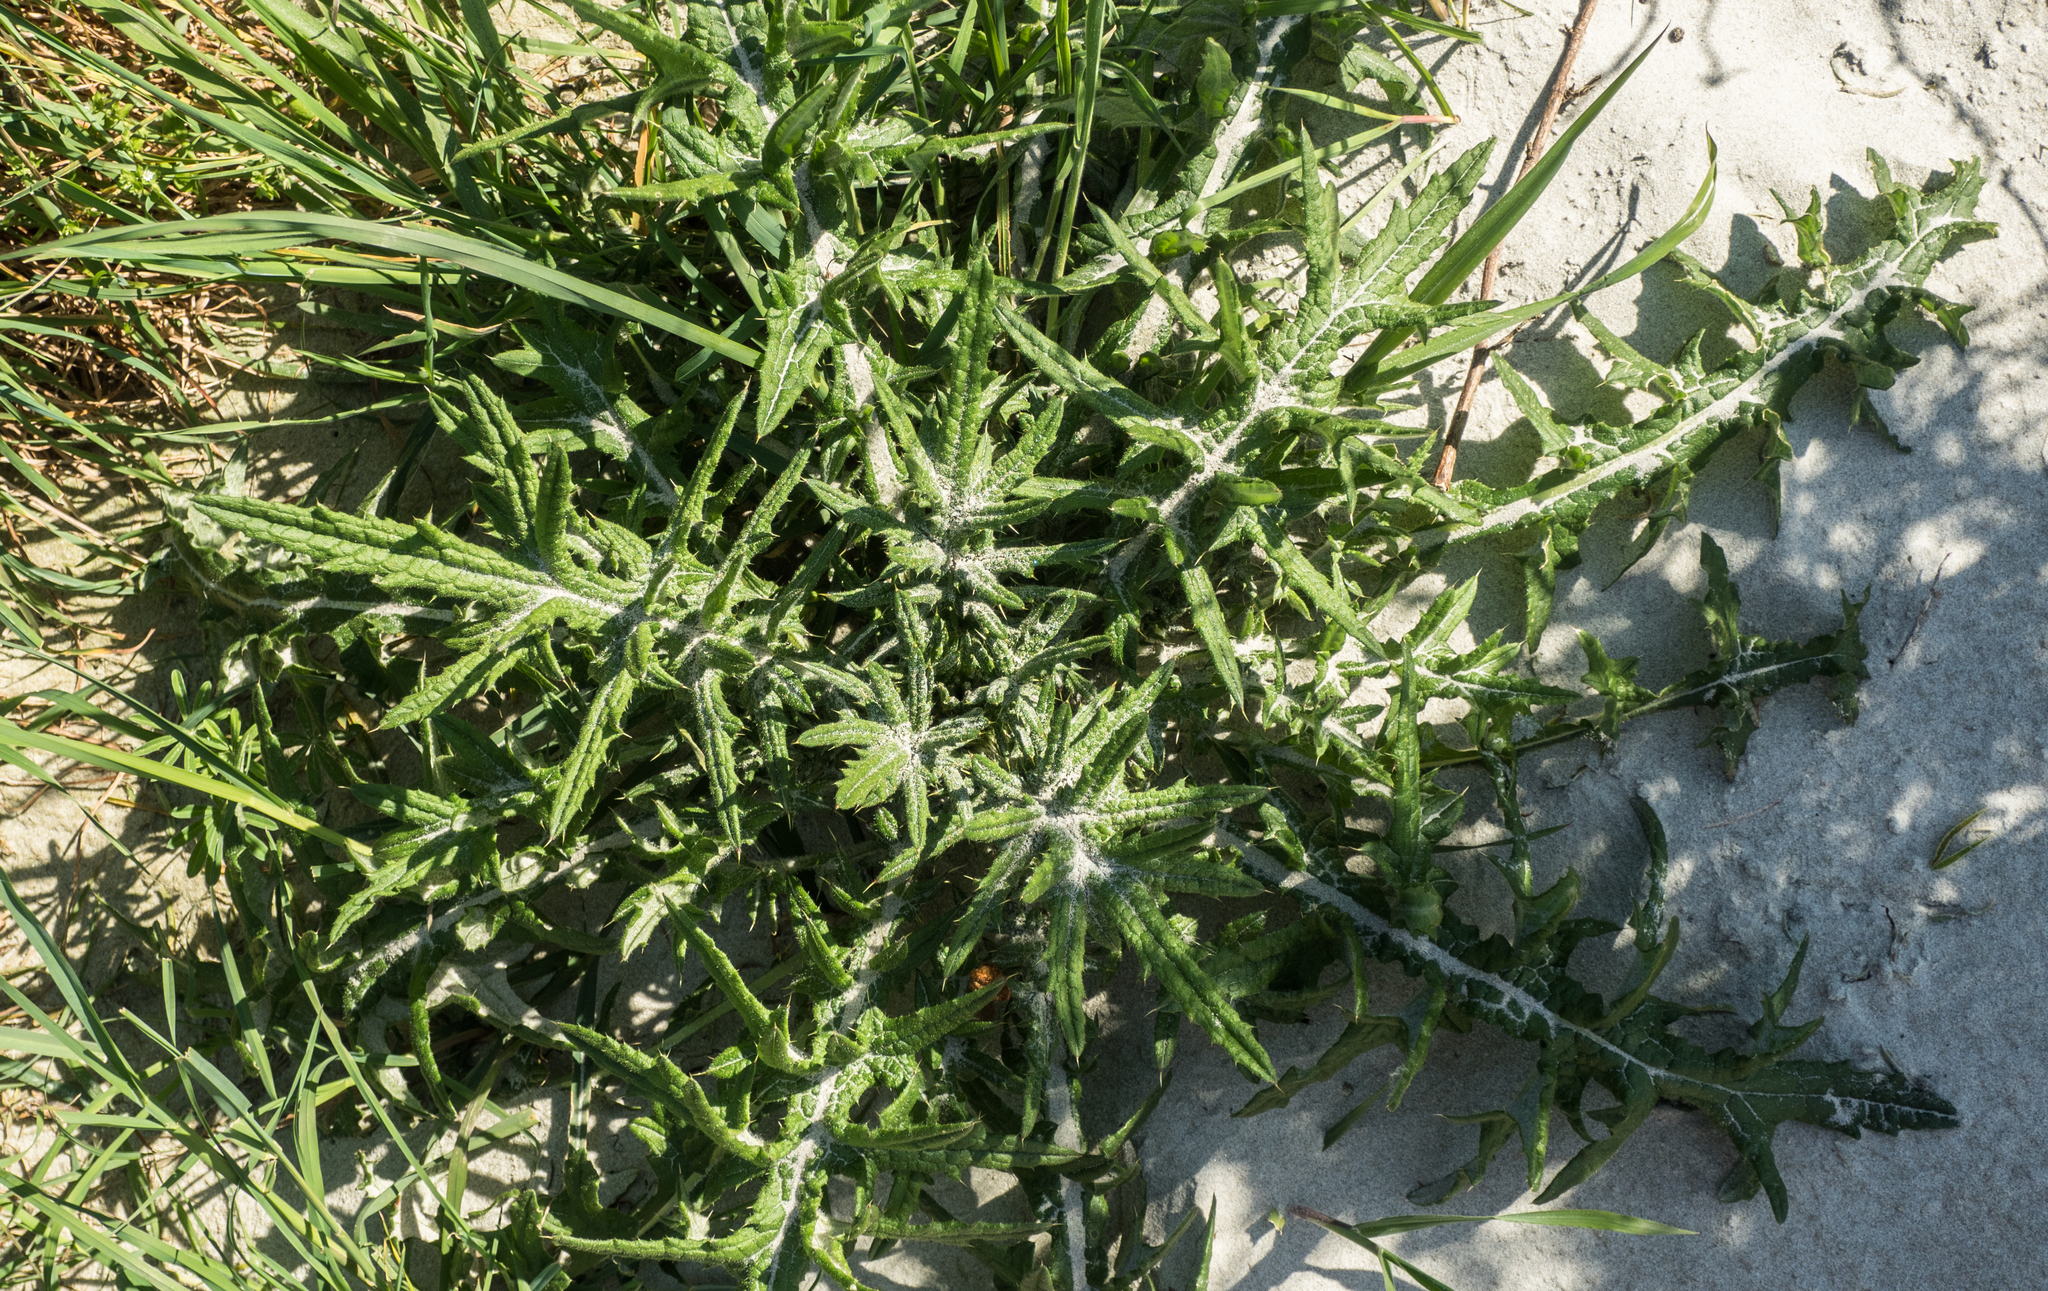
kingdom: Plantae
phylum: Tracheophyta
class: Magnoliopsida
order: Asterales
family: Asteraceae
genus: Cirsium
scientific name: Cirsium vulgare
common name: Bull thistle
